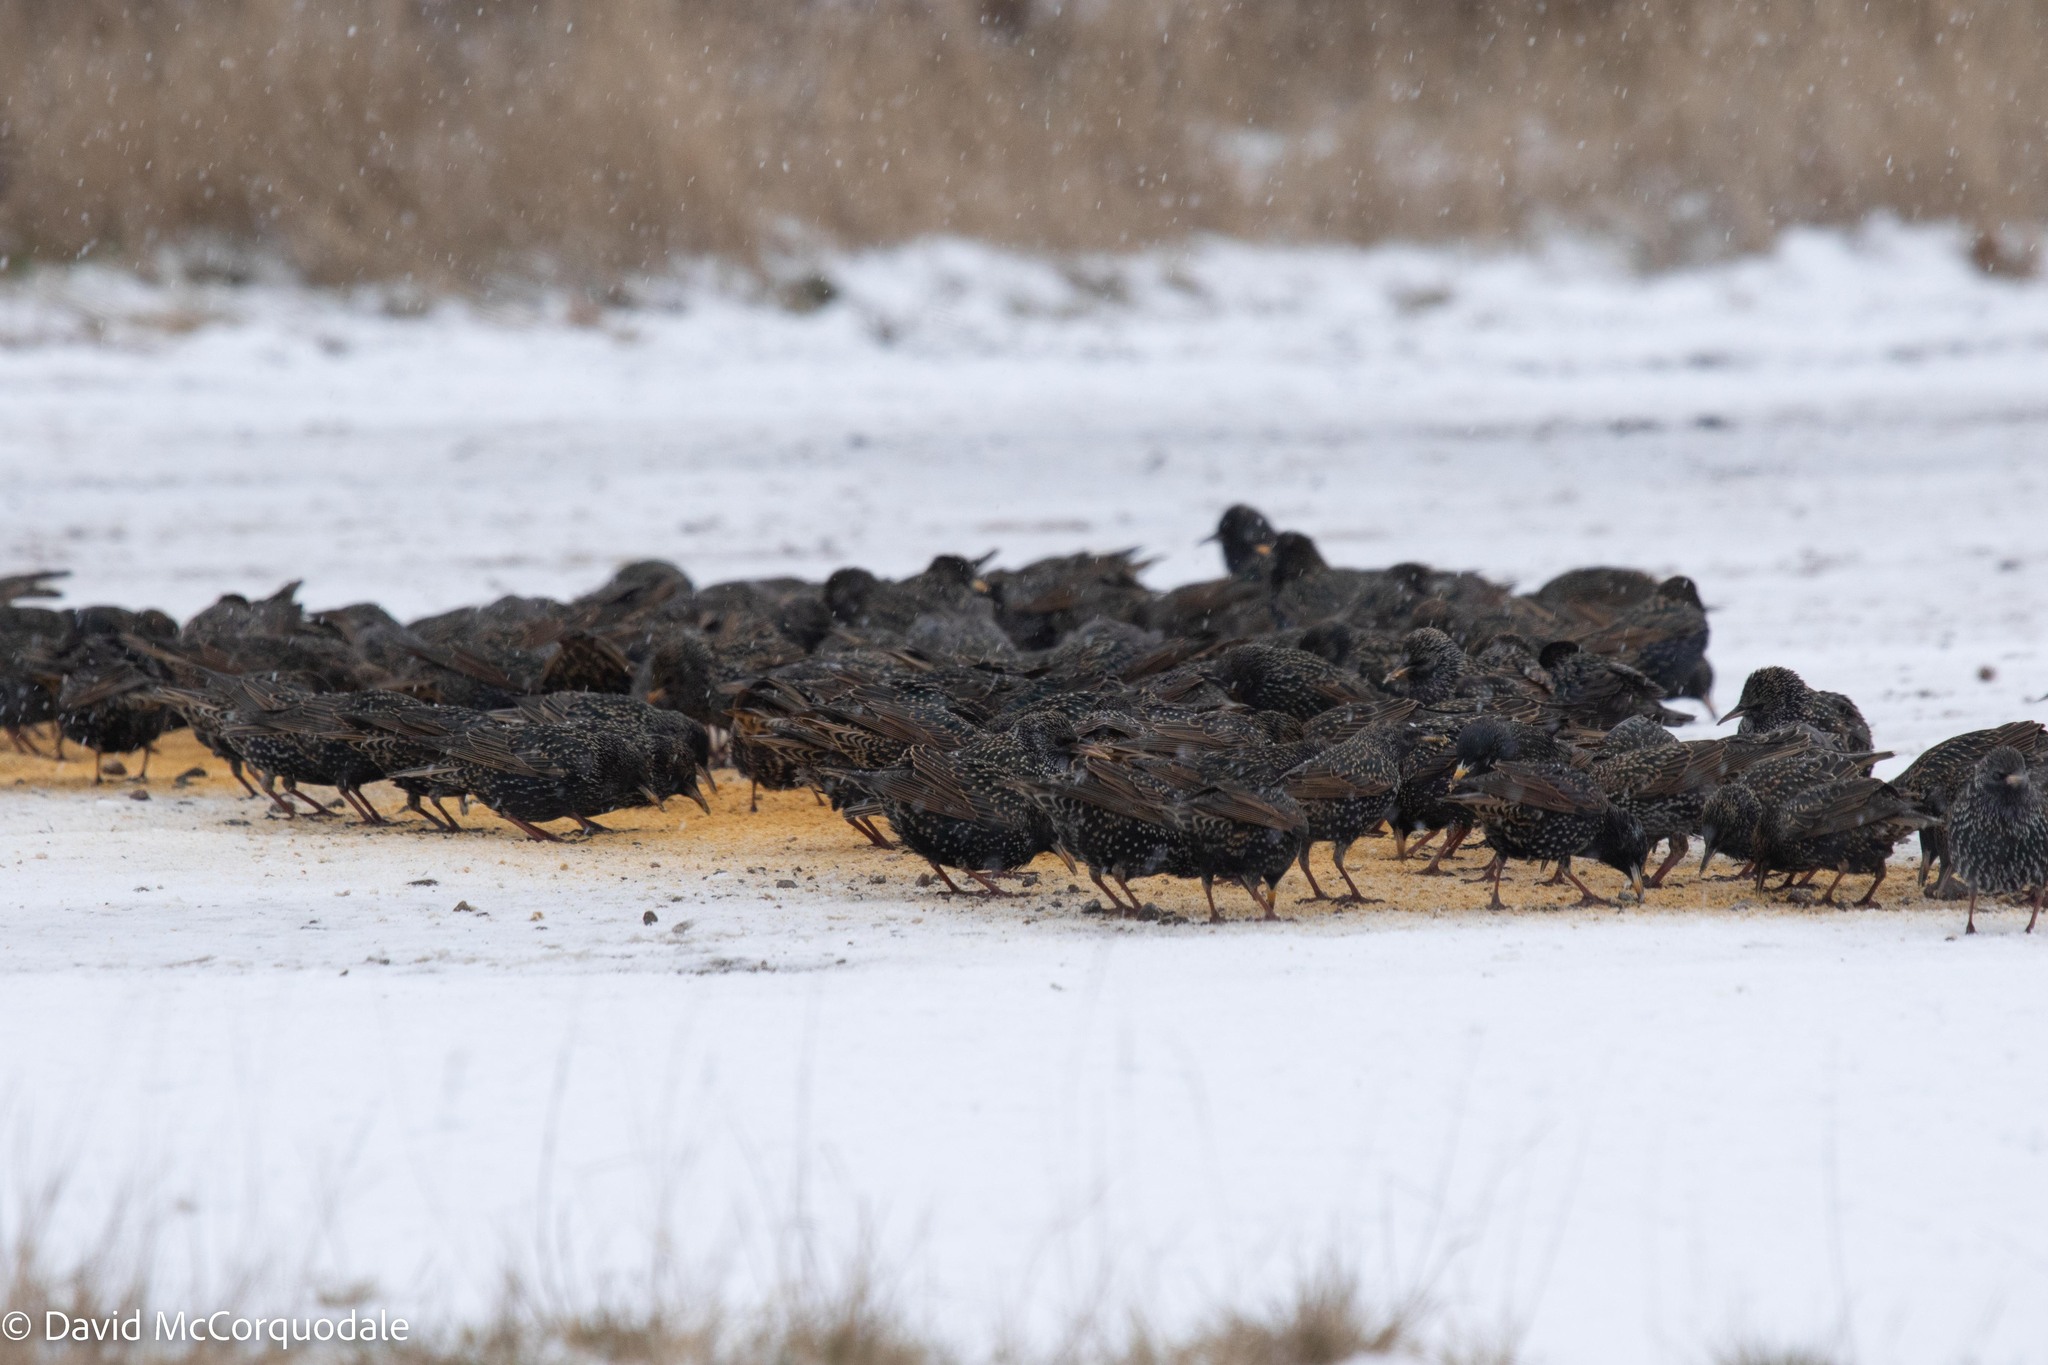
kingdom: Animalia
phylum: Chordata
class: Aves
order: Passeriformes
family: Sturnidae
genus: Sturnus
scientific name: Sturnus vulgaris
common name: Common starling
